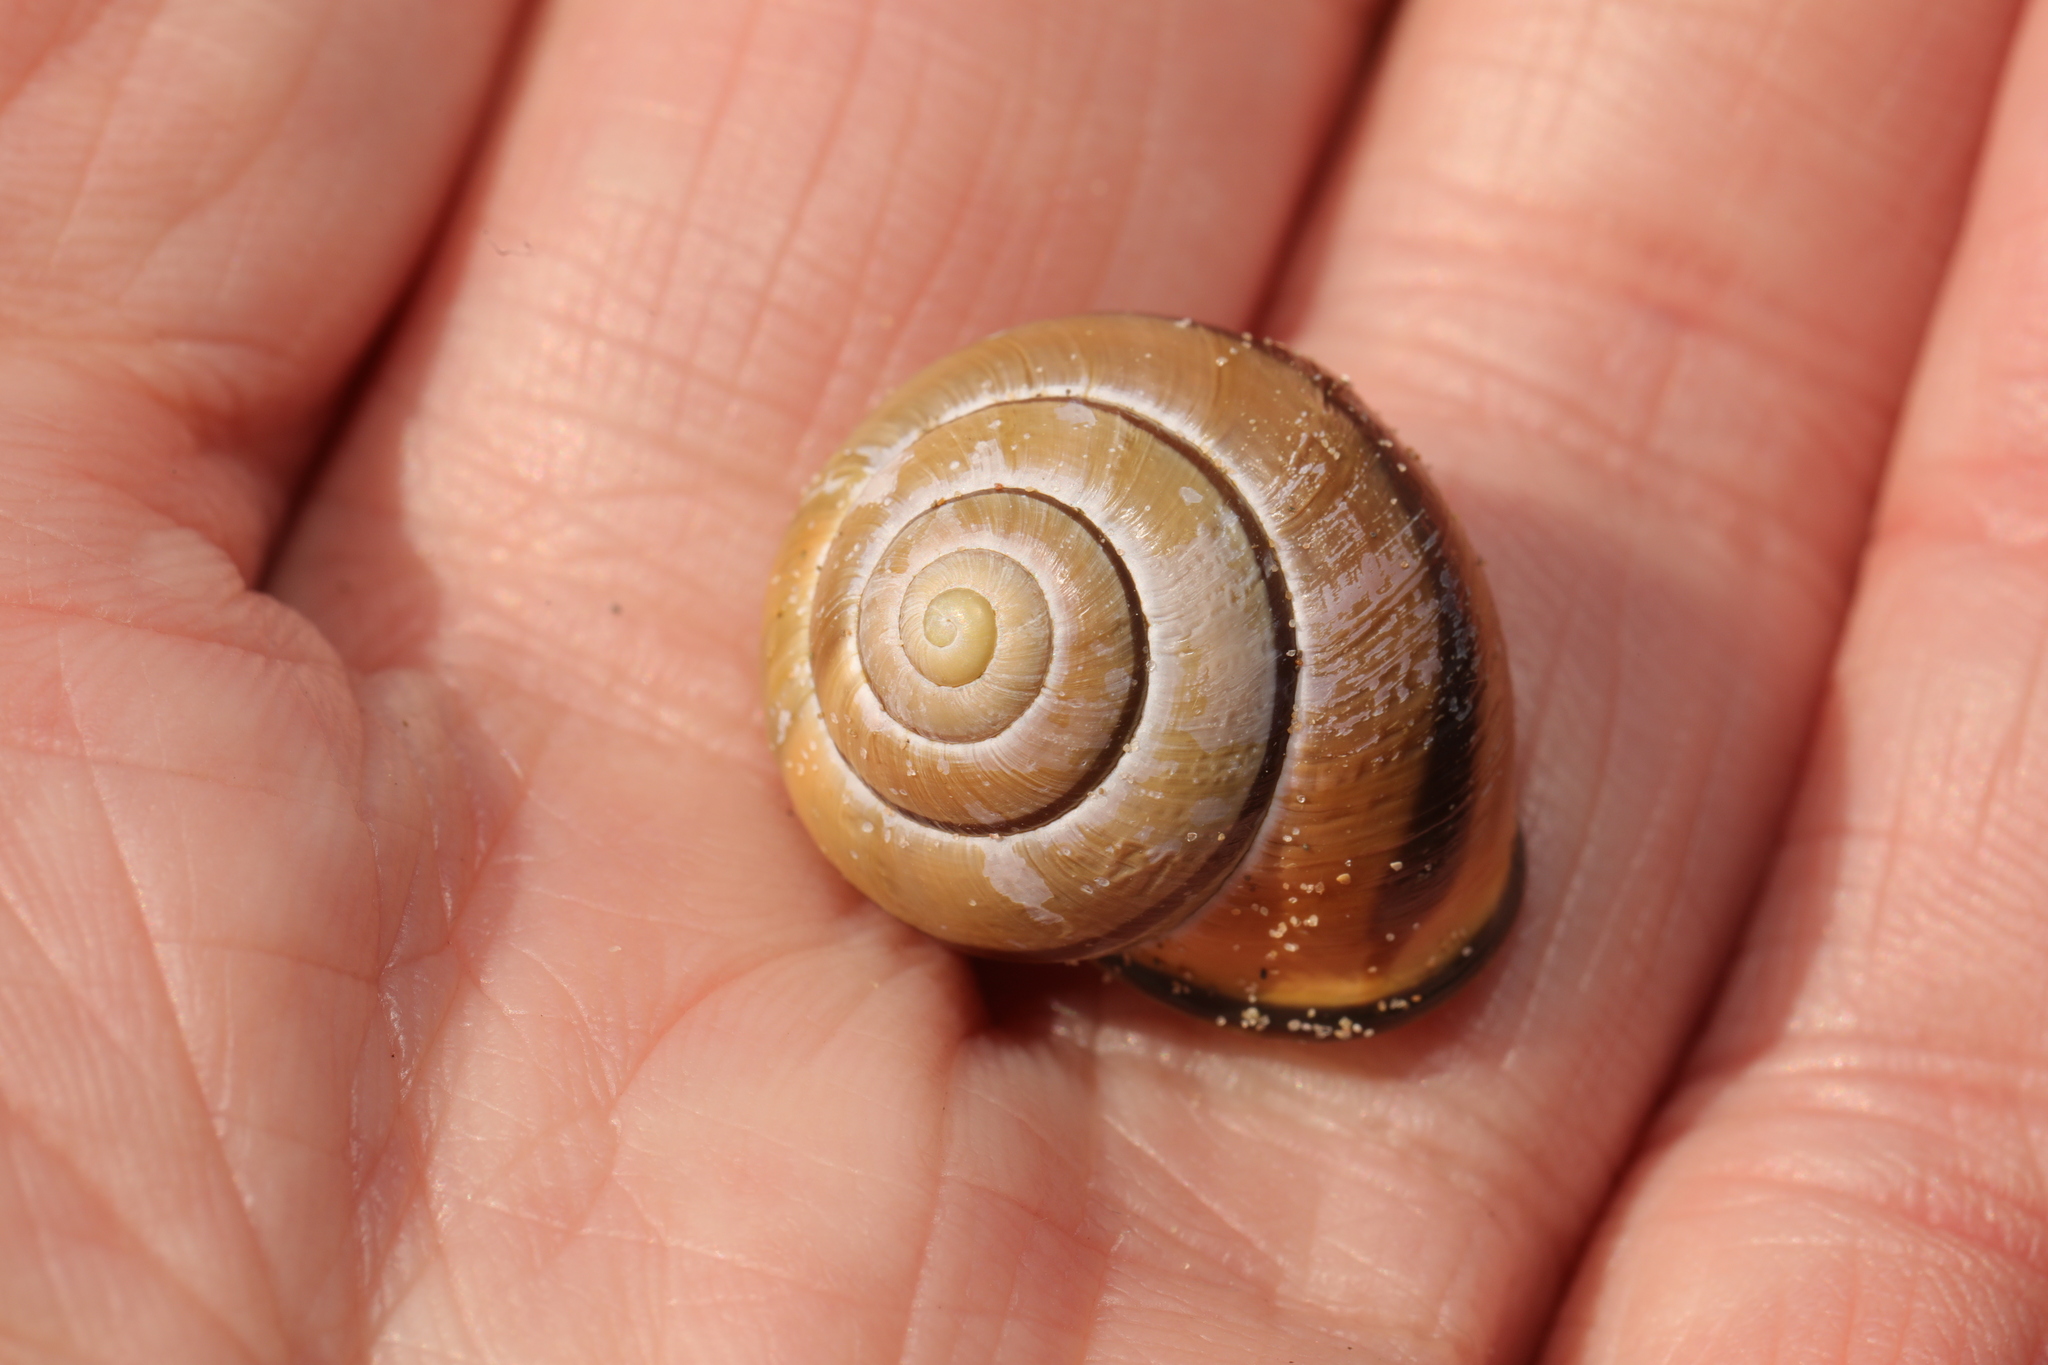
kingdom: Animalia
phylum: Mollusca
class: Gastropoda
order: Stylommatophora
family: Helicidae
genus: Cepaea
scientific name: Cepaea nemoralis
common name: Grovesnail
